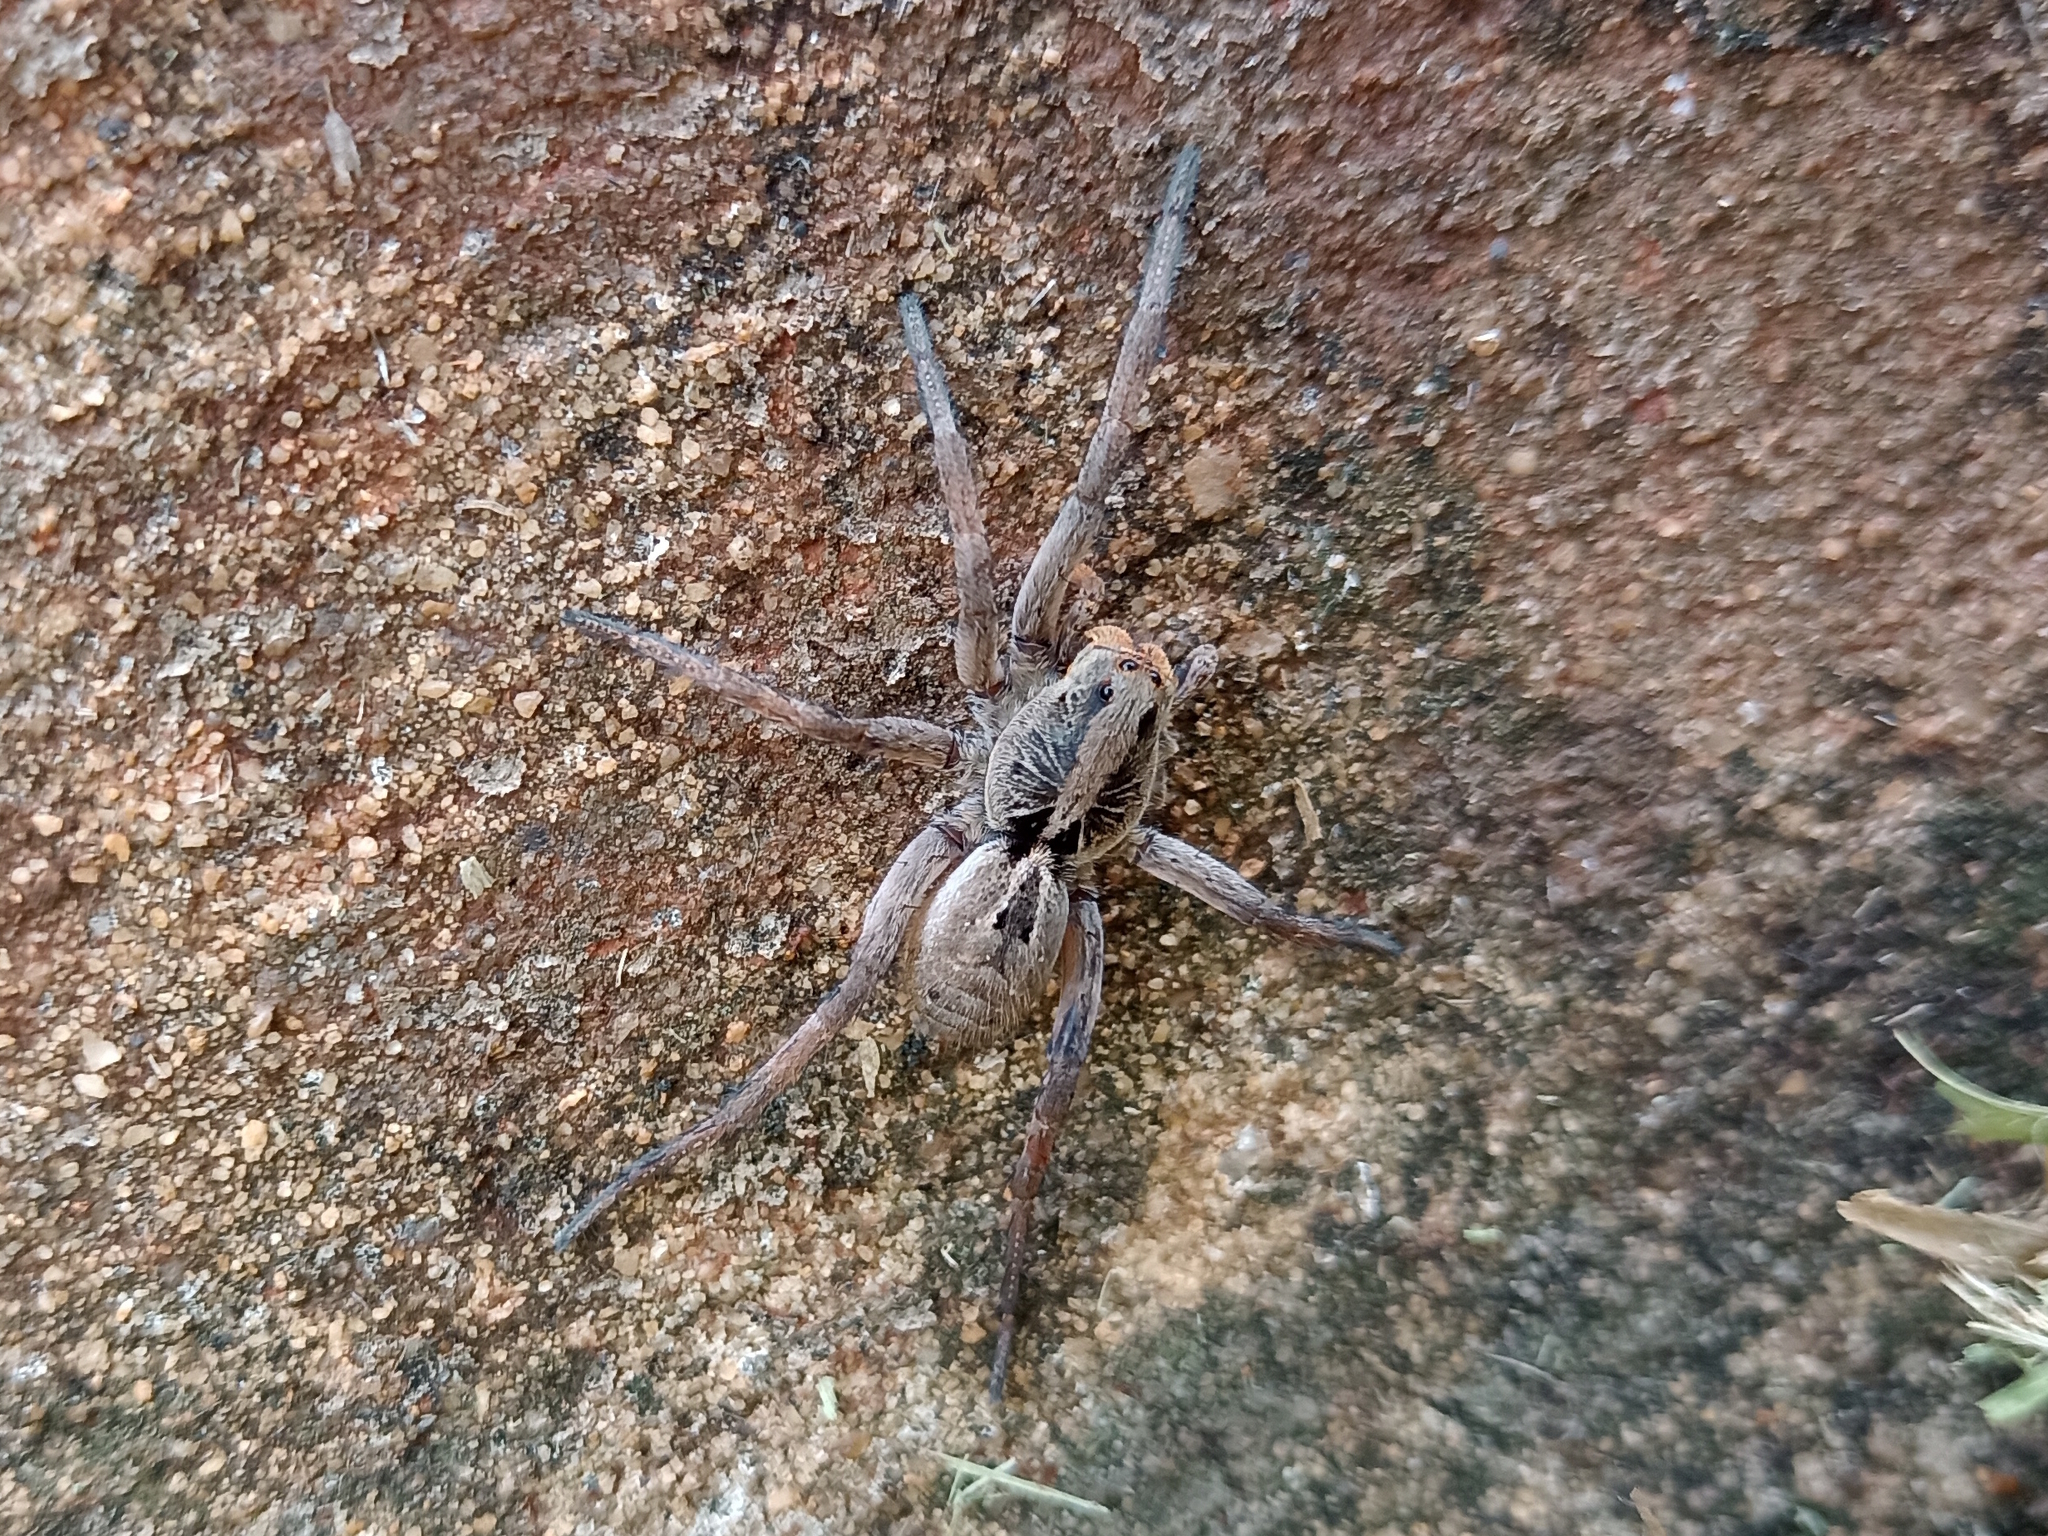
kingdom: Animalia
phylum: Arthropoda
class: Arachnida
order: Araneae
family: Lycosidae
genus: Lycosa
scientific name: Lycosa erythrognatha
